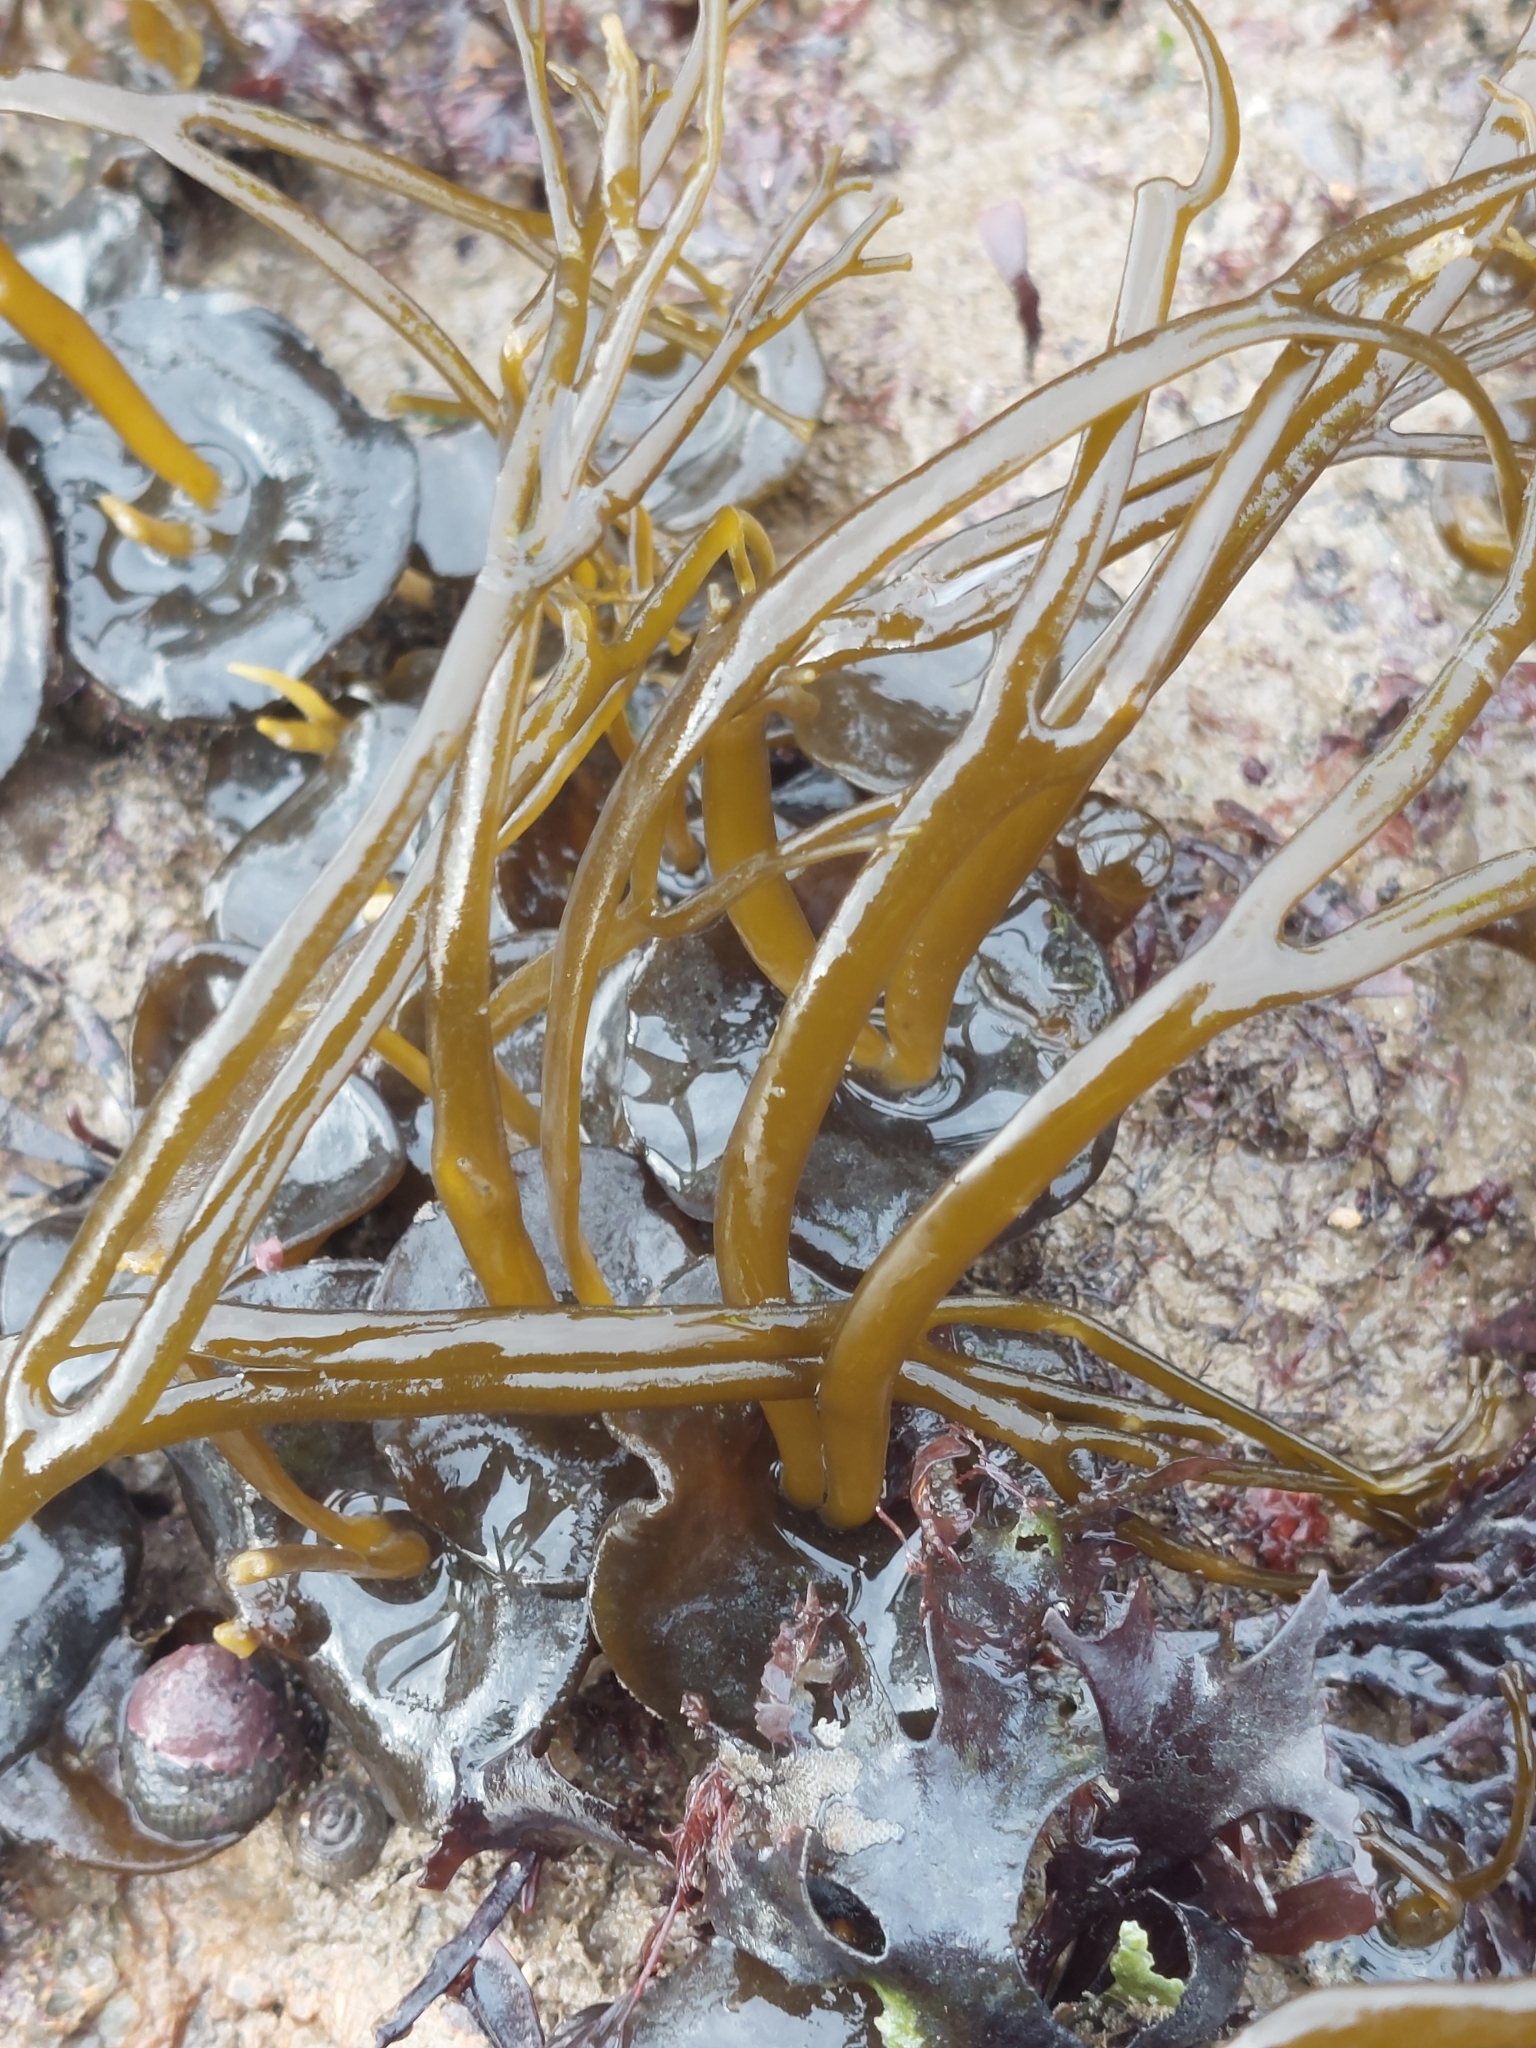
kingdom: Chromista
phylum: Ochrophyta
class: Phaeophyceae
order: Fucales
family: Himanthaliaceae
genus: Himanthalia
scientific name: Himanthalia elongata
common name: Sea-thong
